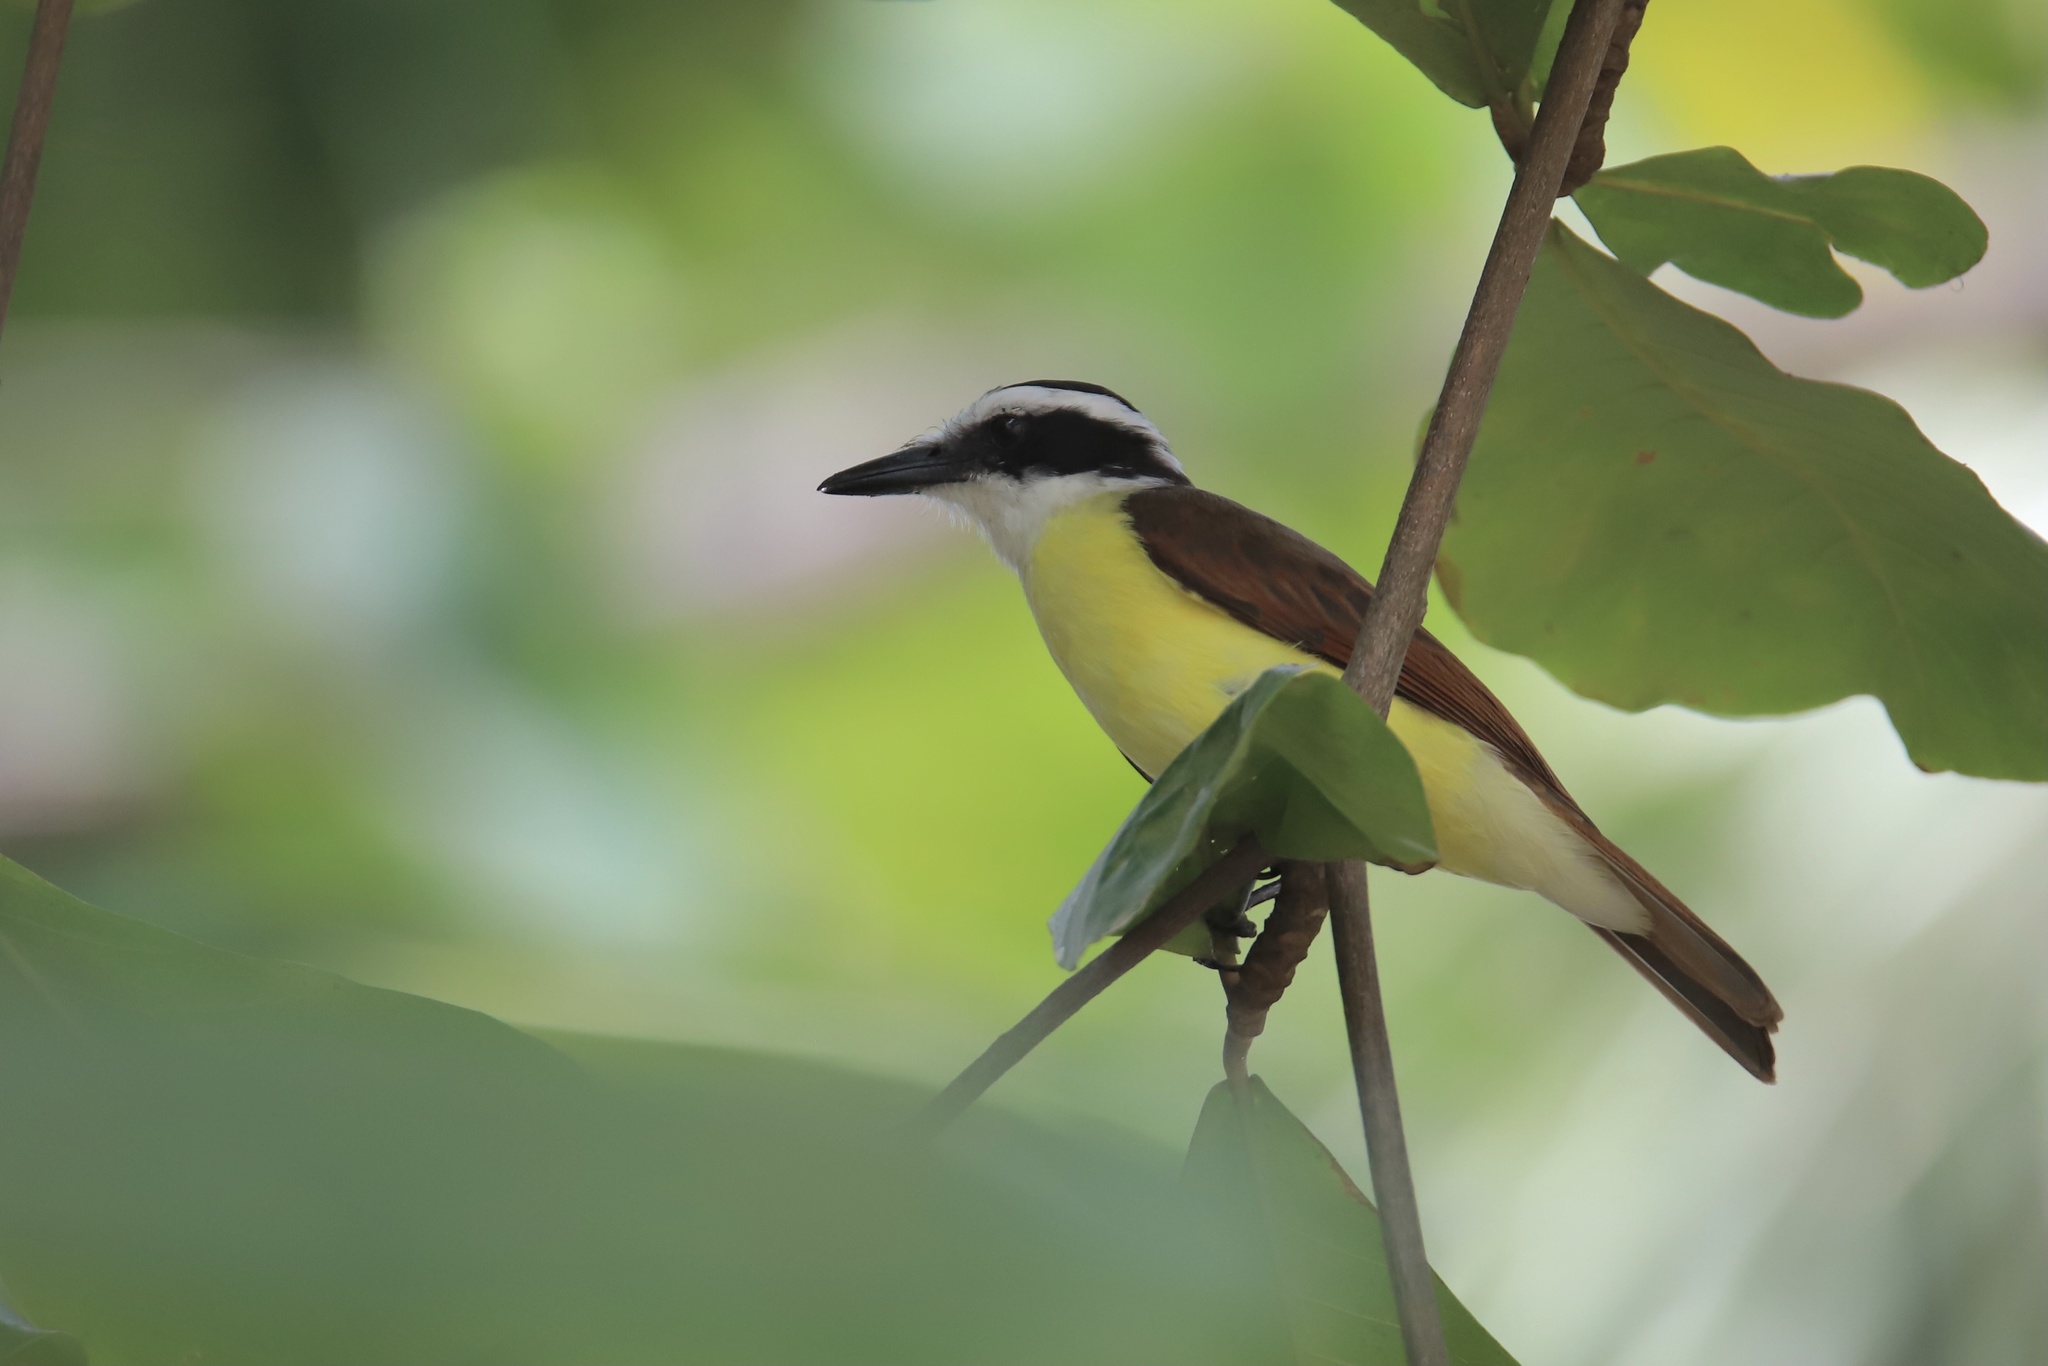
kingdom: Animalia
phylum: Chordata
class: Aves
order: Passeriformes
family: Tyrannidae
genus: Pitangus
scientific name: Pitangus sulphuratus
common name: Great kiskadee
